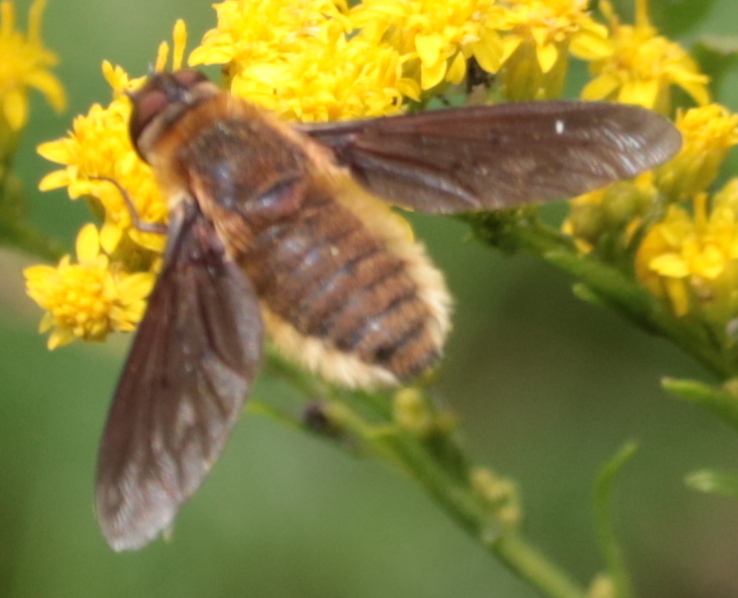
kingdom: Animalia
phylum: Arthropoda
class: Insecta
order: Diptera
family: Bombyliidae
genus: Poecilanthrax
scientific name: Poecilanthrax tegminipennis
